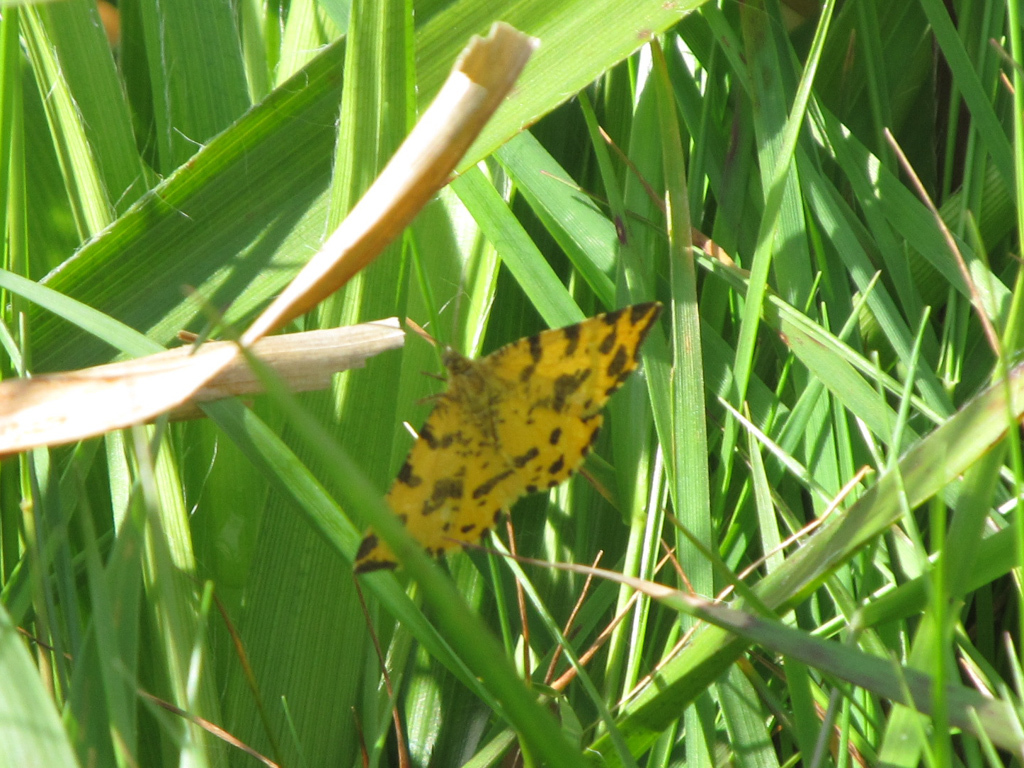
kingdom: Animalia
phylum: Arthropoda
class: Insecta
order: Lepidoptera
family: Geometridae
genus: Pseudopanthera
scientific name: Pseudopanthera macularia
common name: Speckled yellow
